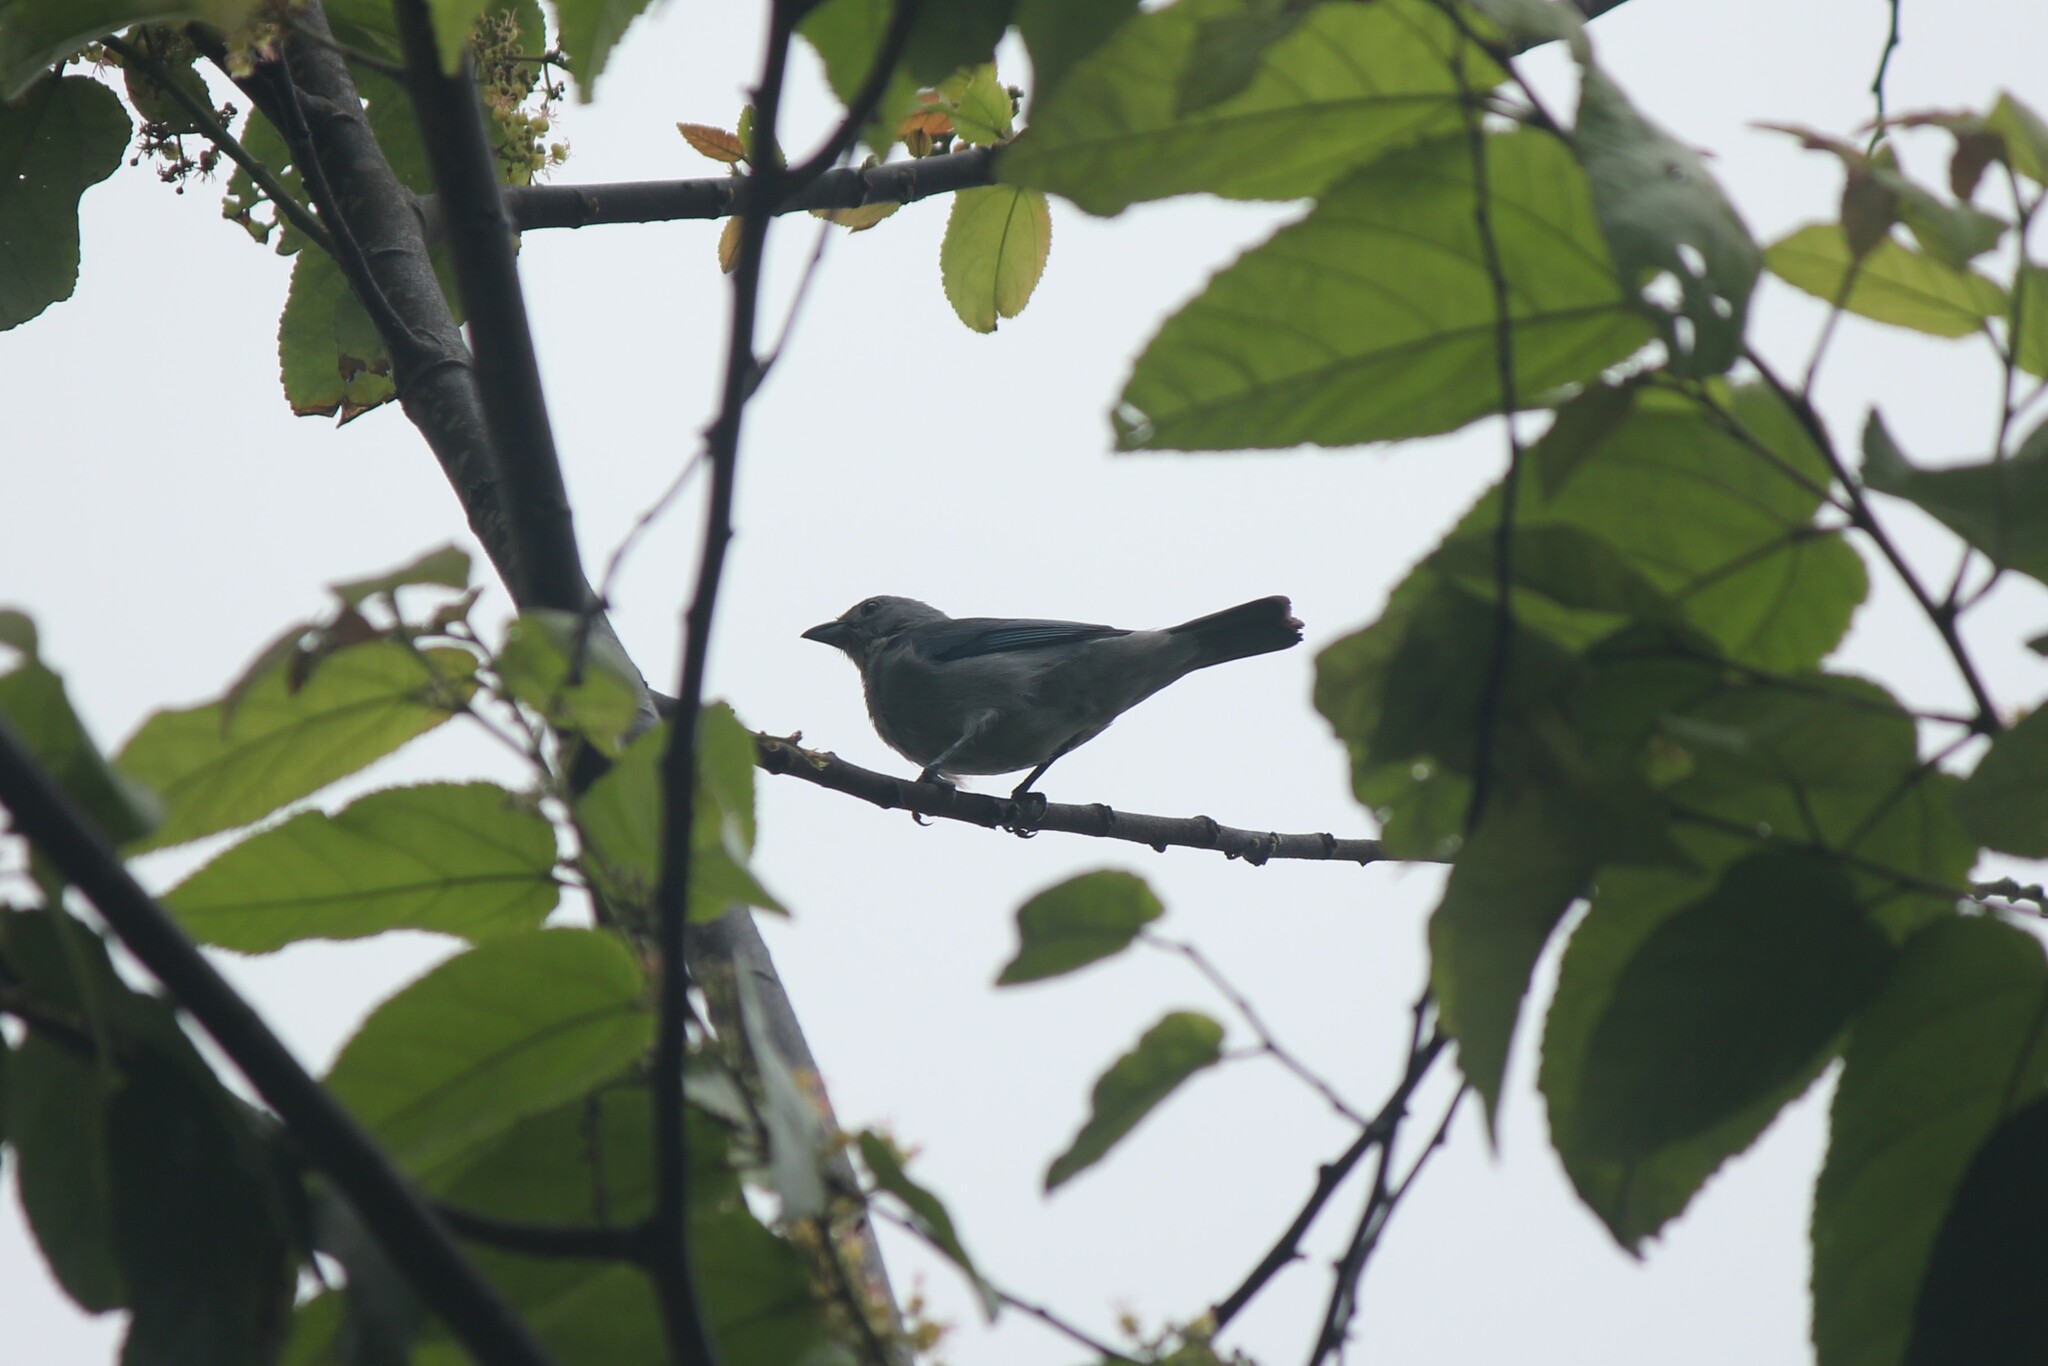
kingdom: Animalia
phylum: Chordata
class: Aves
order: Passeriformes
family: Thraupidae
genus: Thraupis
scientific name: Thraupis episcopus
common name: Blue-grey tanager
